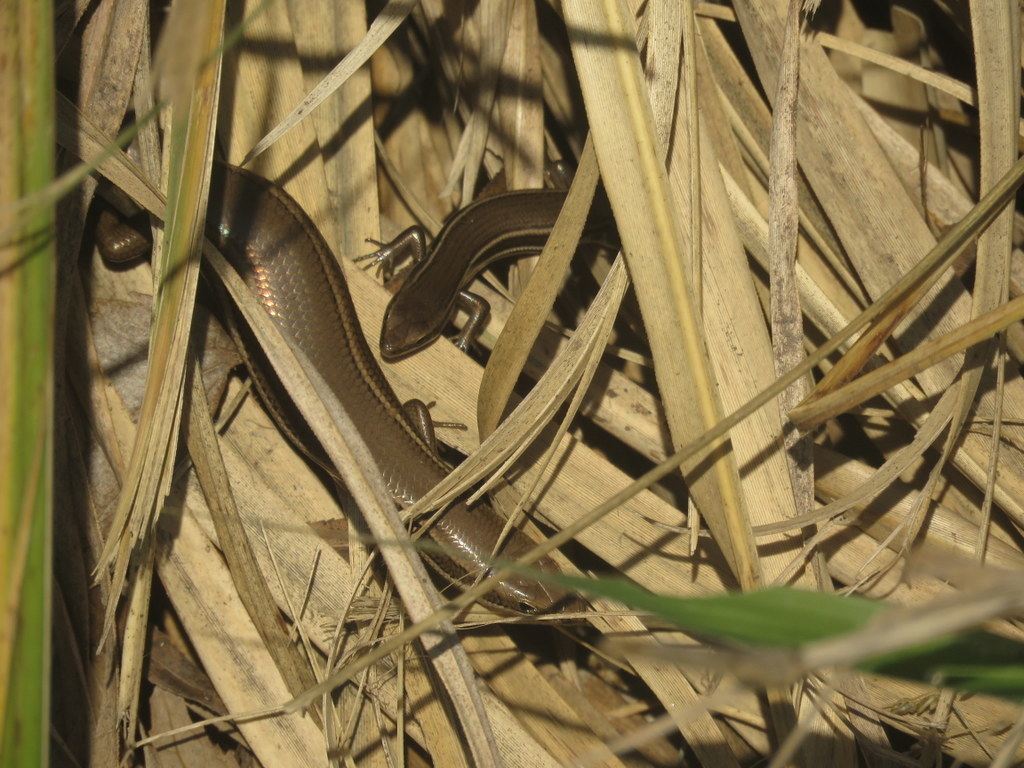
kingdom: Animalia
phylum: Chordata
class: Squamata
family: Scincidae
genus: Aspronema
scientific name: Aspronema dorsivittatum
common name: Paraguay mabuya
